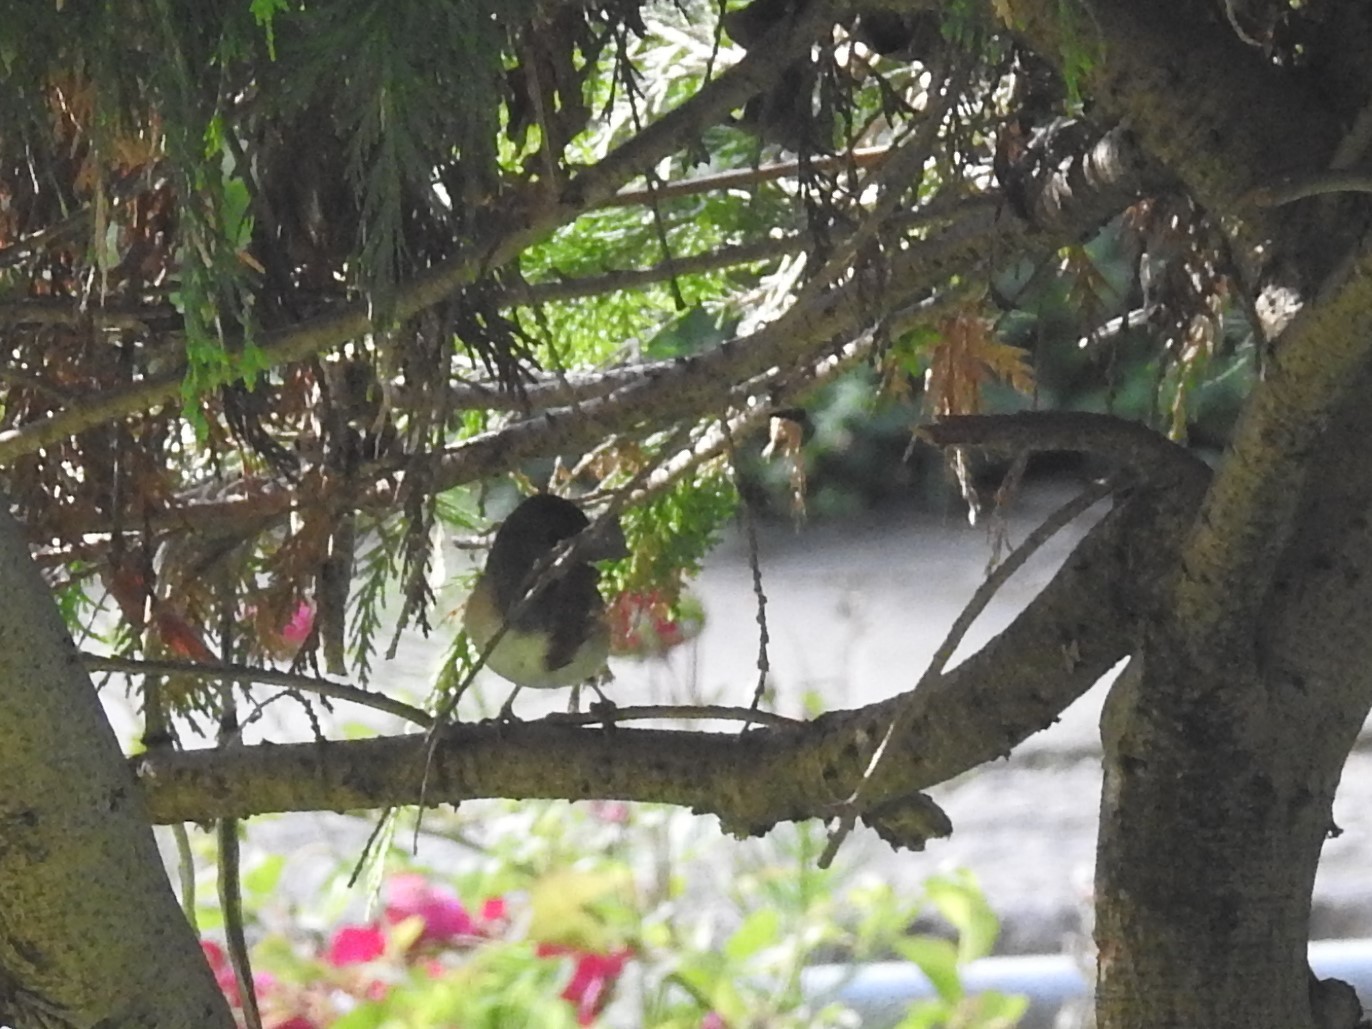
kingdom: Animalia
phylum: Chordata
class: Aves
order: Passeriformes
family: Passerellidae
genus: Junco
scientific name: Junco hyemalis
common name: Dark-eyed junco
